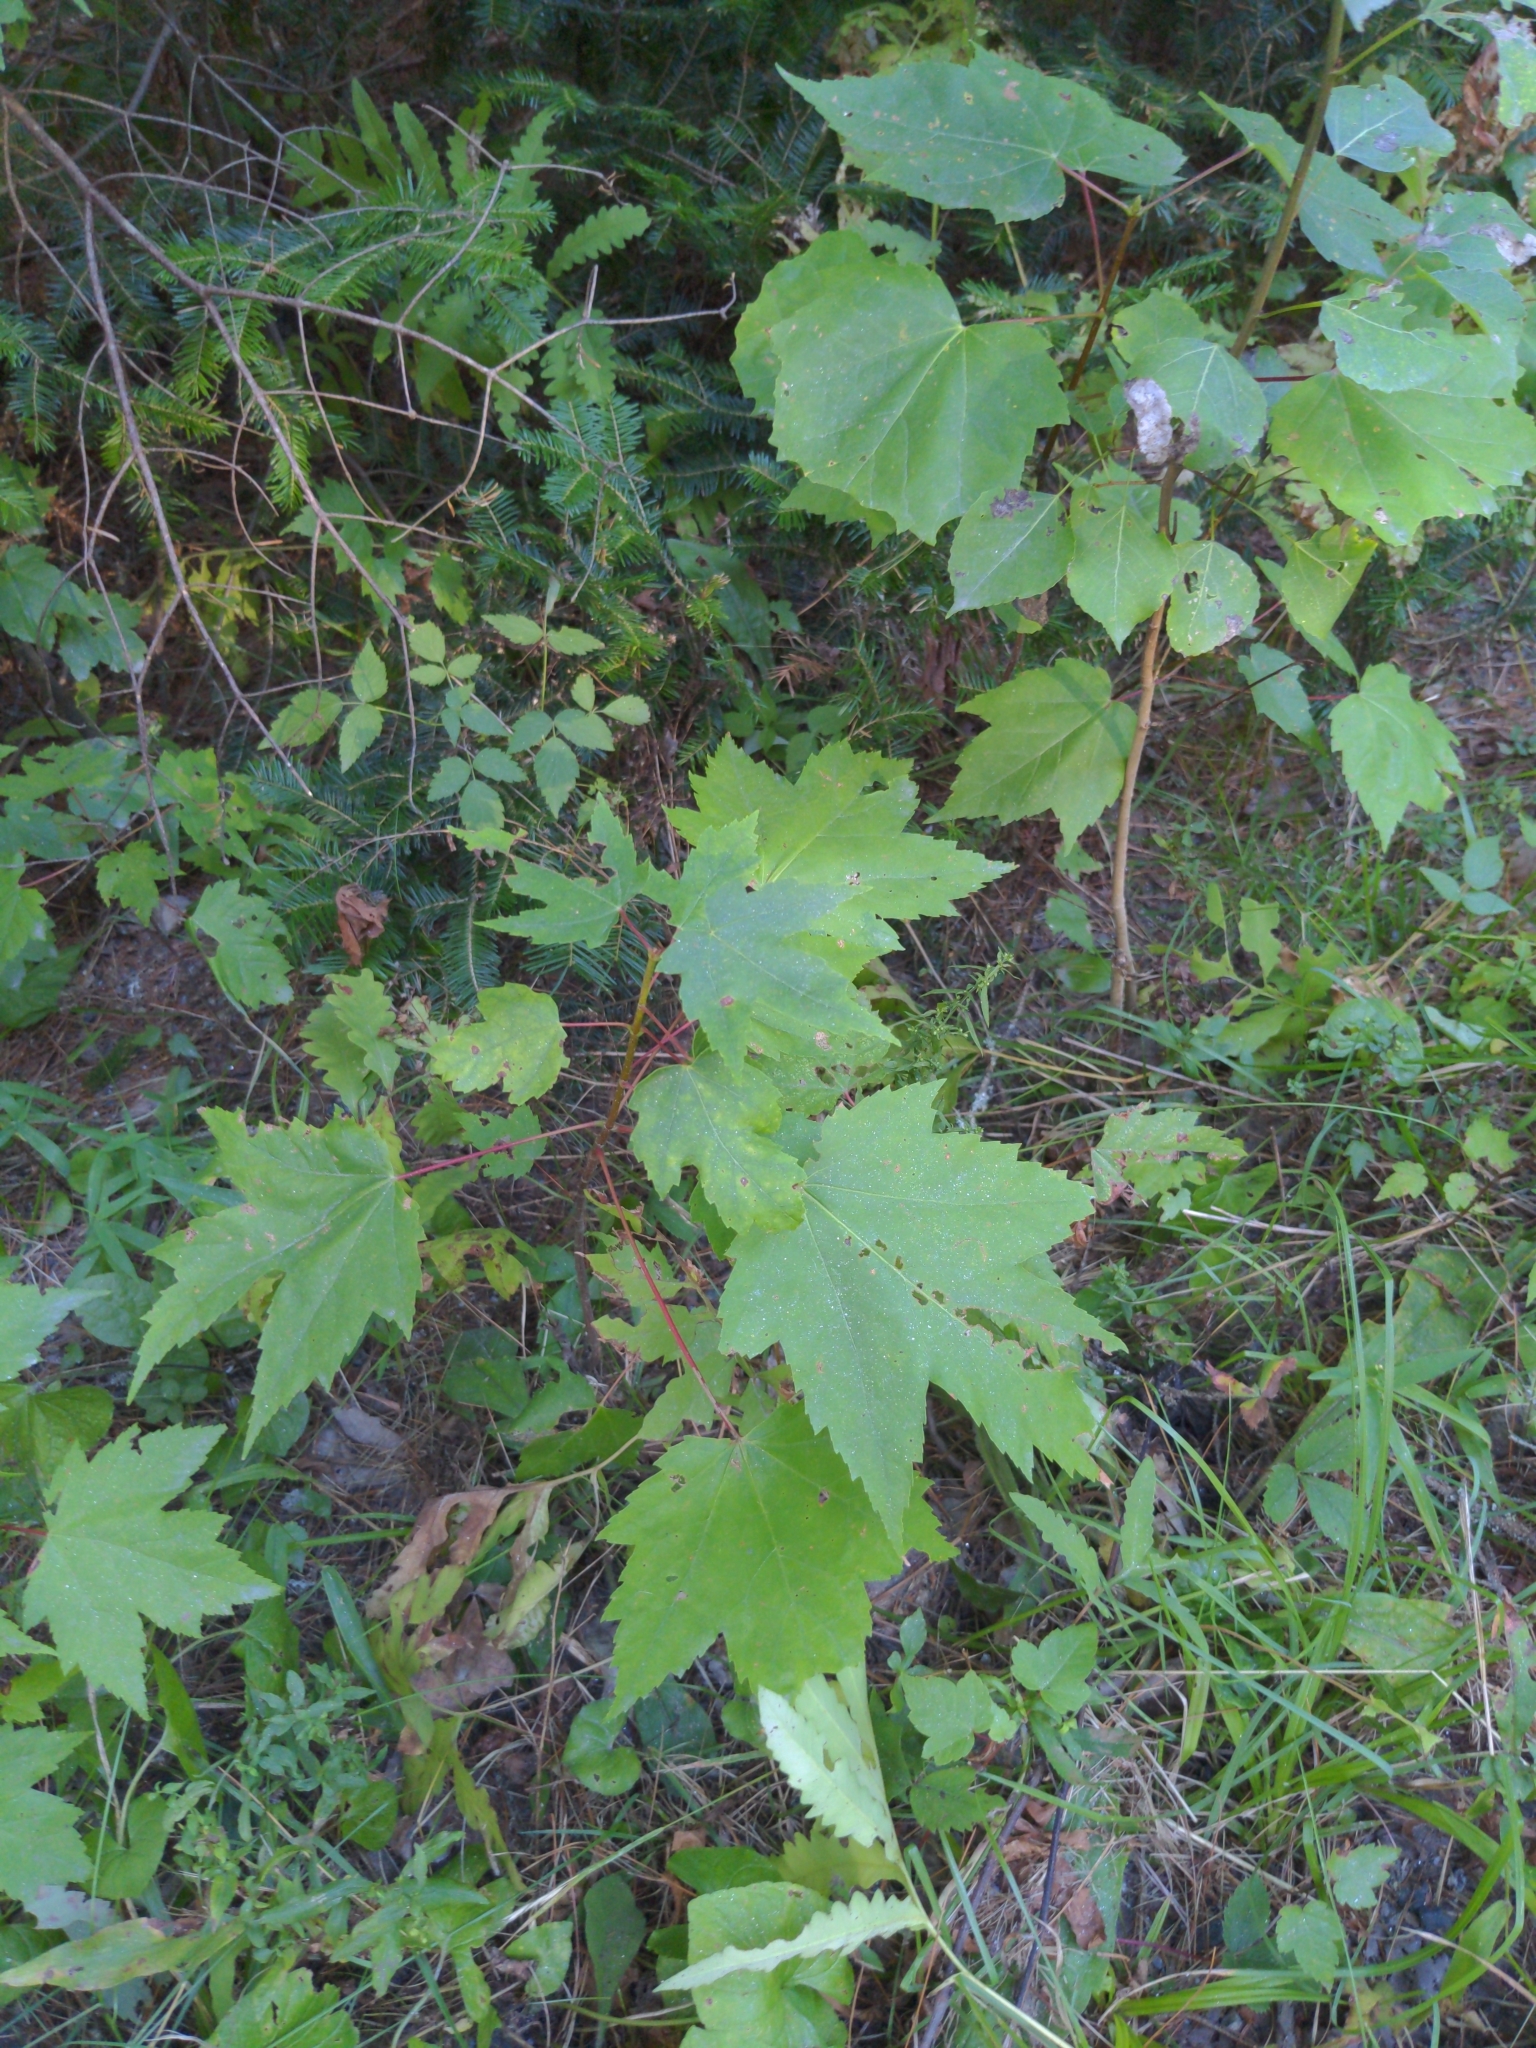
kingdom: Plantae
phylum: Tracheophyta
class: Magnoliopsida
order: Sapindales
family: Sapindaceae
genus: Acer
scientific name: Acer rubrum
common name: Red maple
